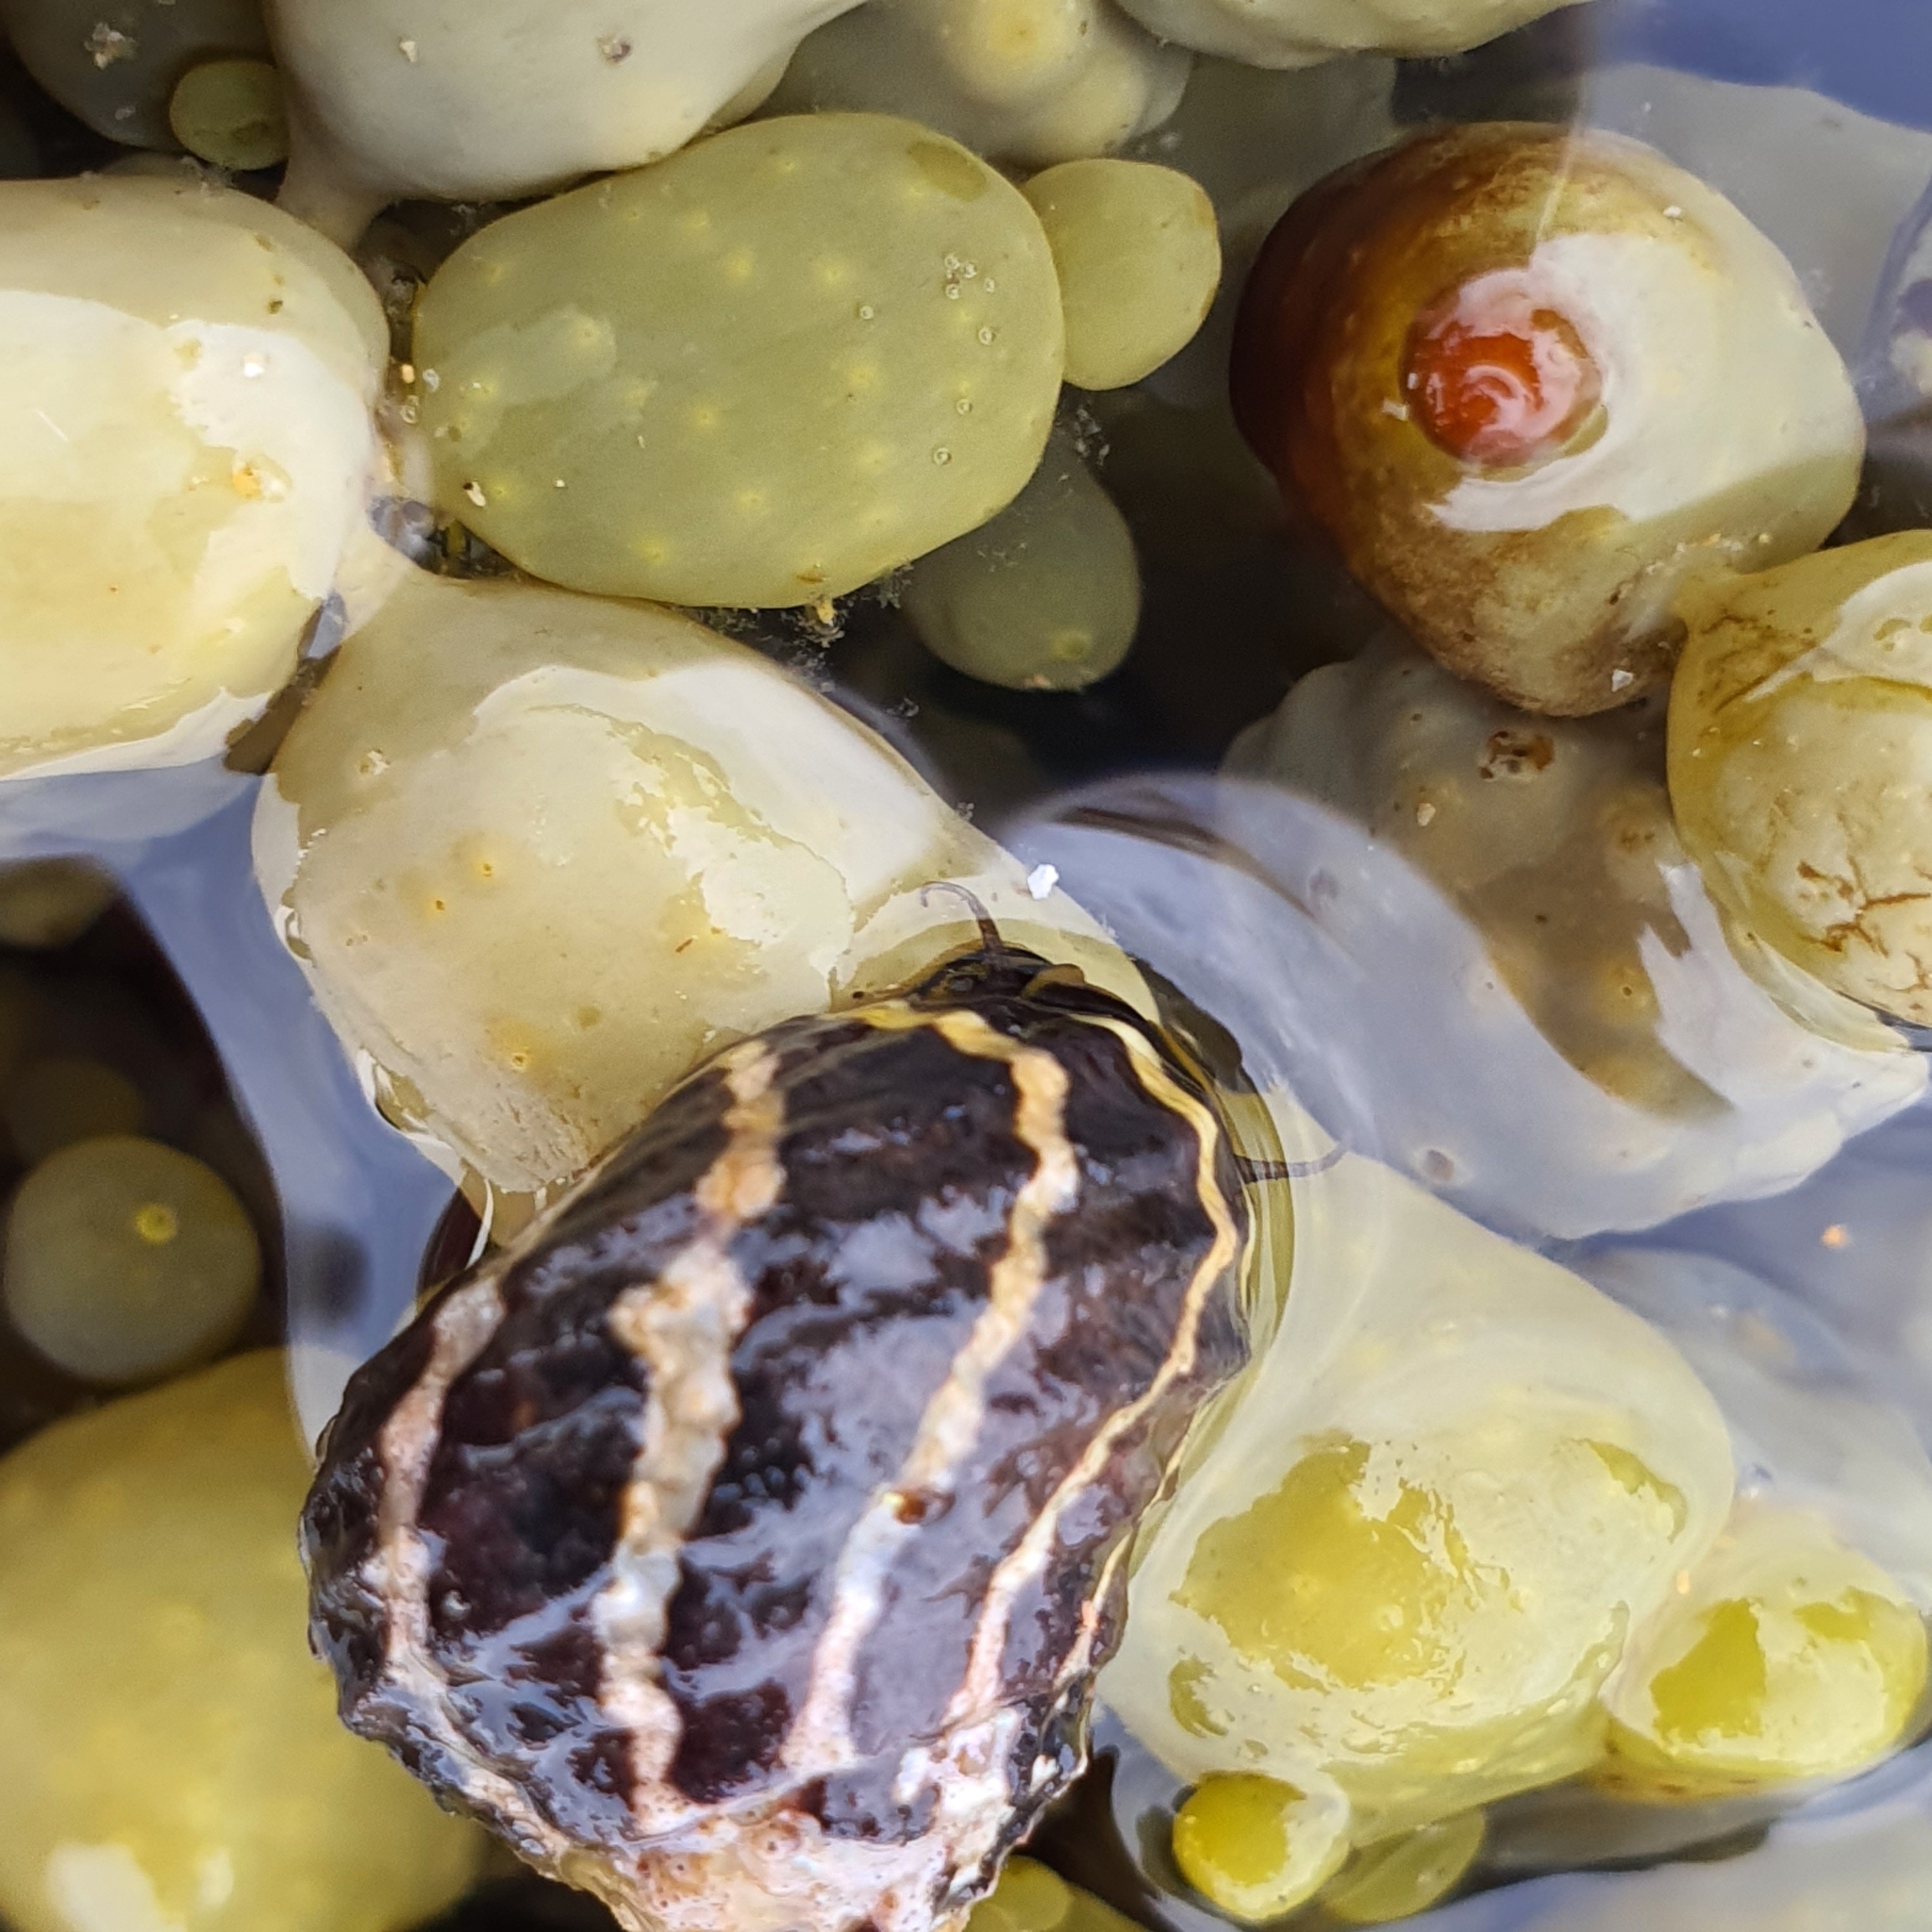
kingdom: Animalia
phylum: Mollusca
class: Gastropoda
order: Trochida
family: Trochidae
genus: Austrocochlea
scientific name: Austrocochlea porcata
